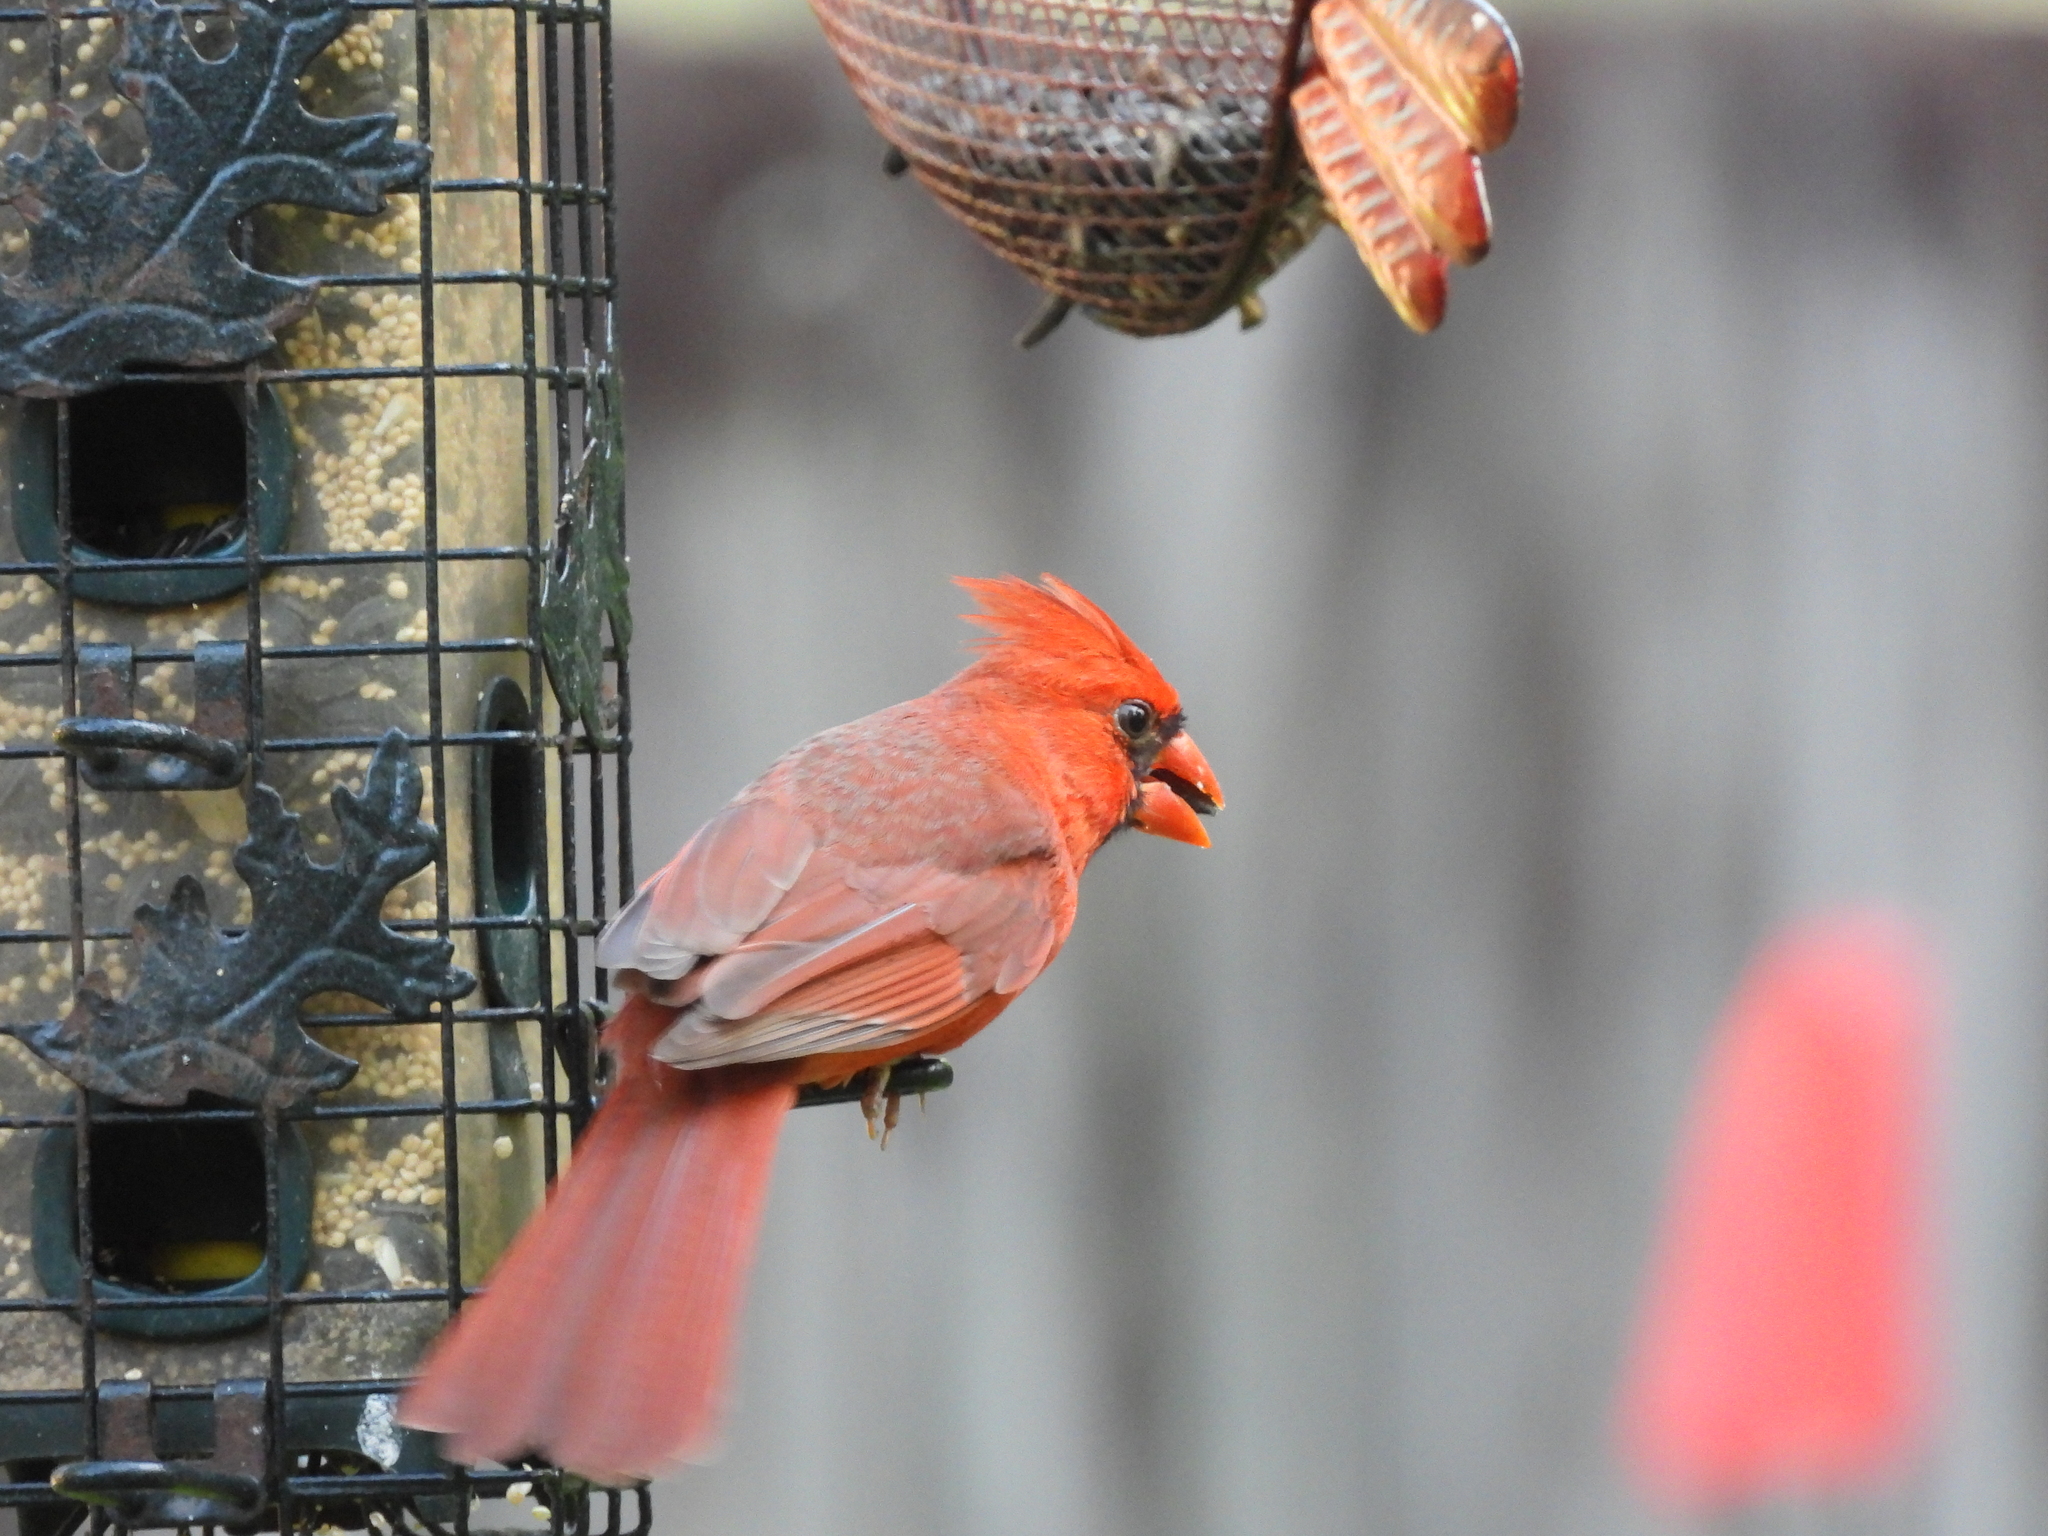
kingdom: Animalia
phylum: Chordata
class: Aves
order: Passeriformes
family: Cardinalidae
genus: Cardinalis
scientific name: Cardinalis cardinalis
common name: Northern cardinal
